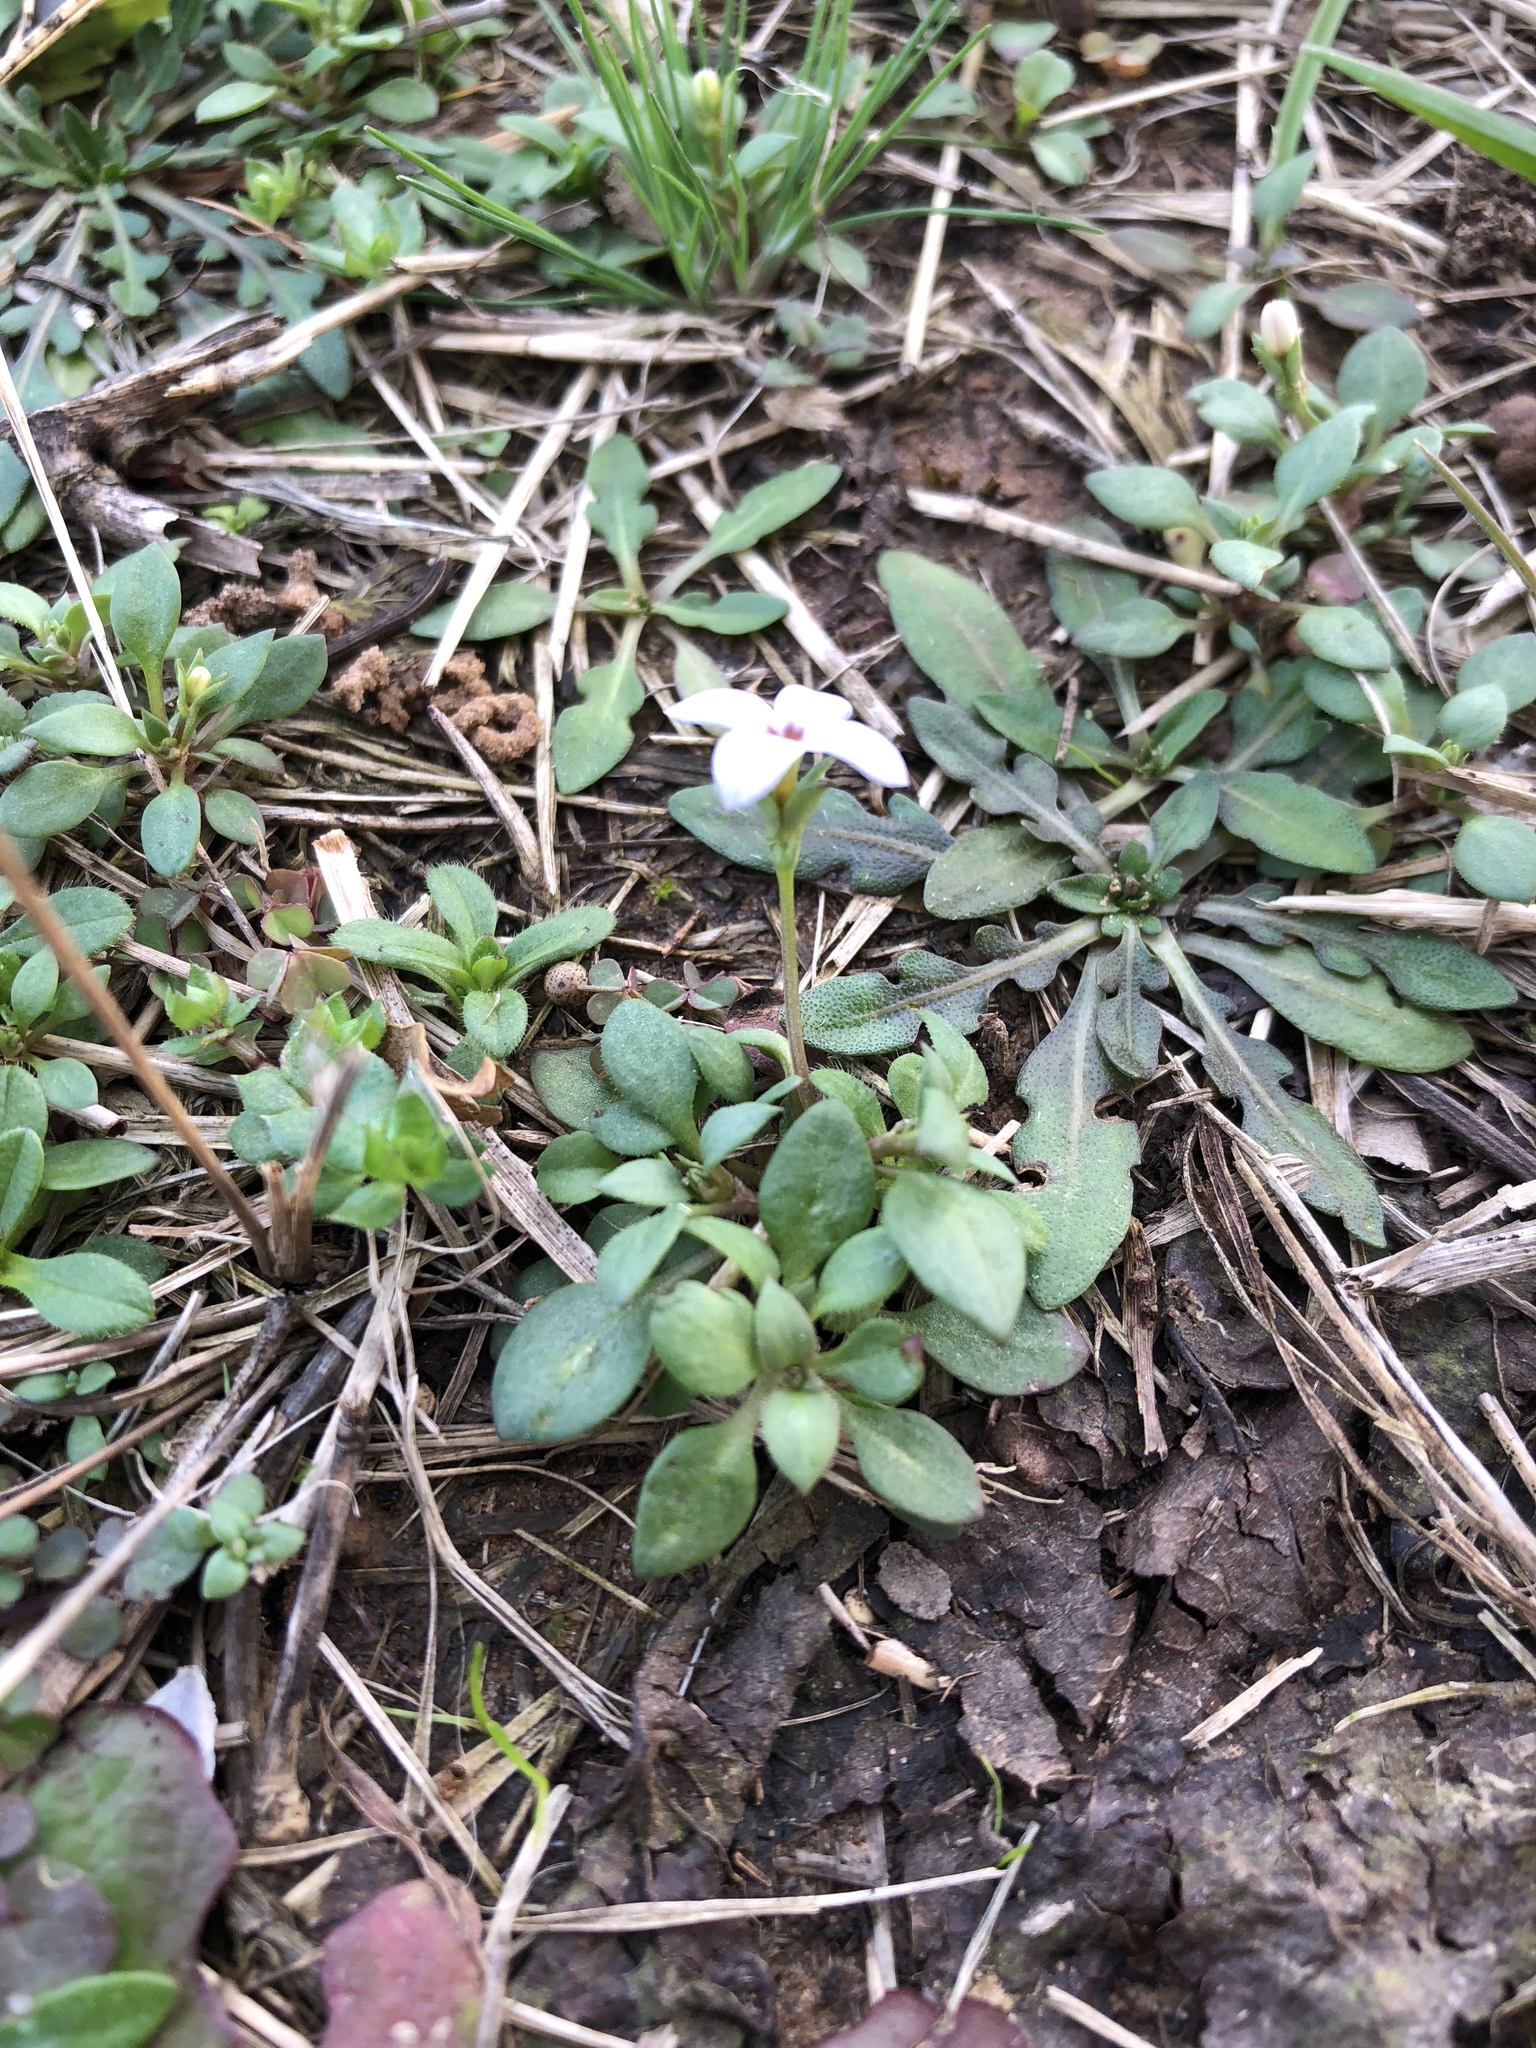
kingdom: Plantae
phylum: Tracheophyta
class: Magnoliopsida
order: Gentianales
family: Rubiaceae
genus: Houstonia
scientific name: Houstonia pusilla
